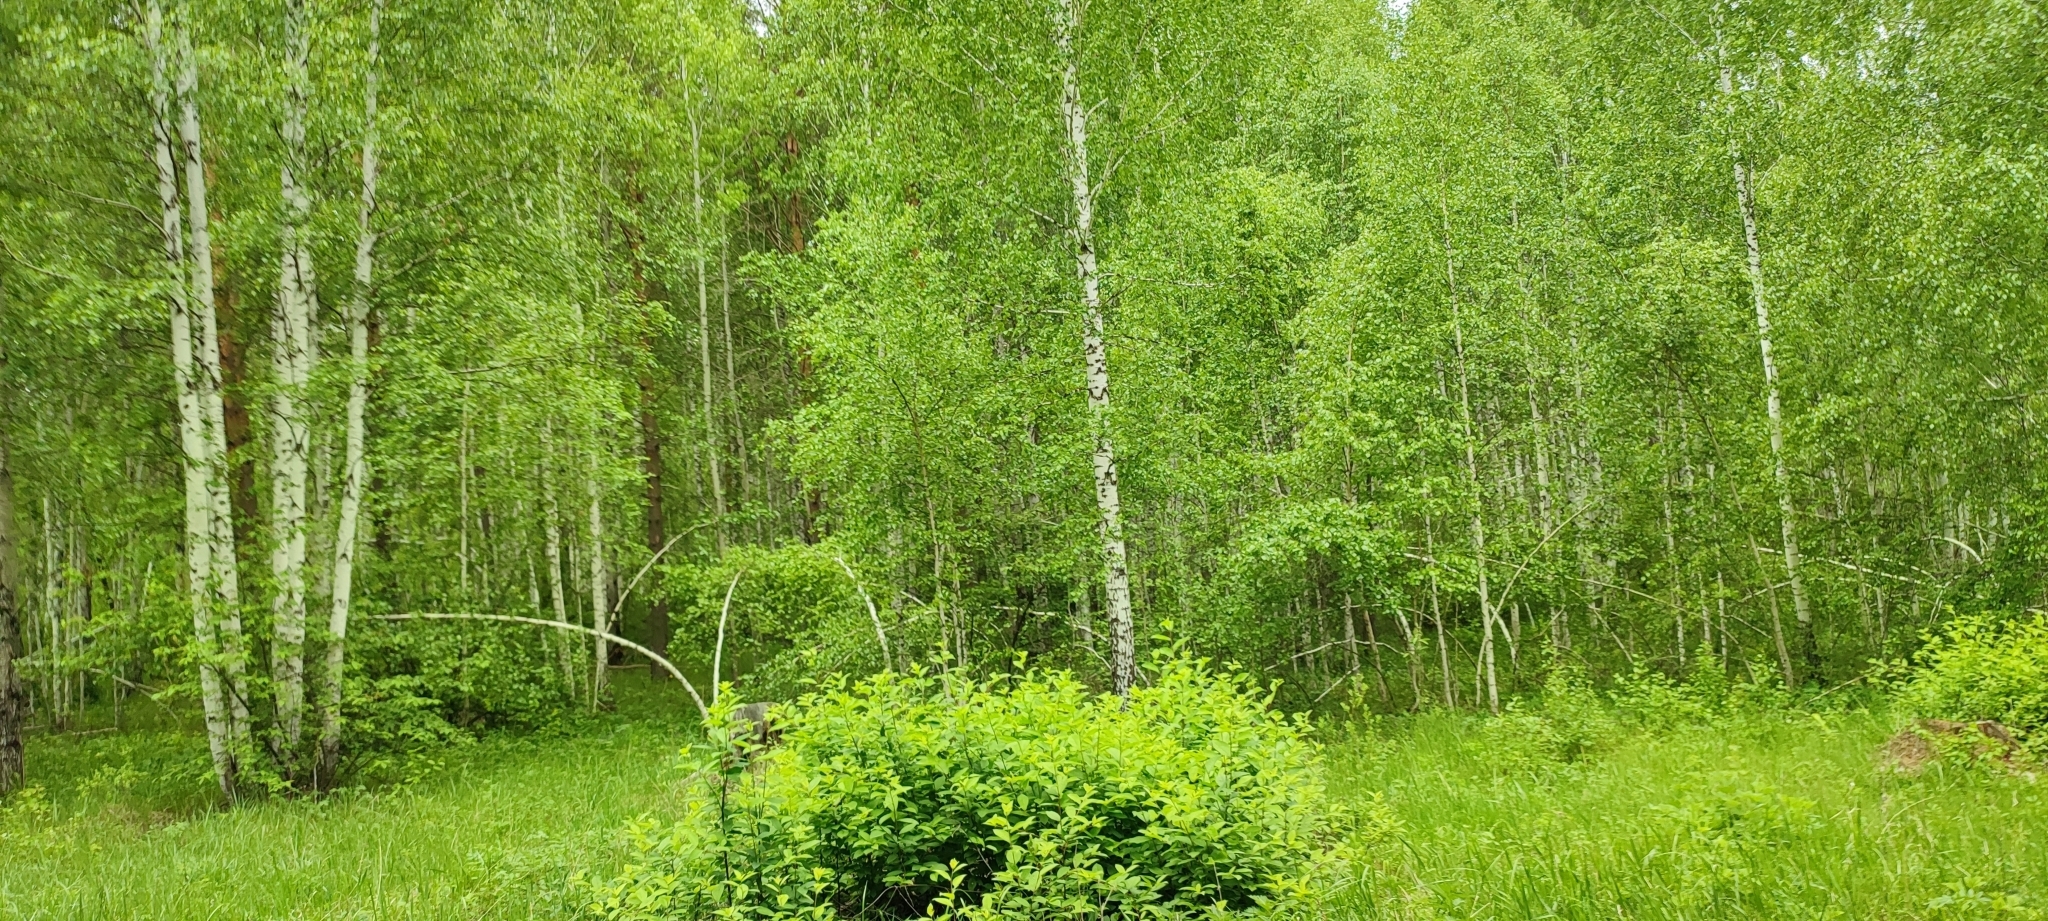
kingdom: Plantae
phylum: Tracheophyta
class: Magnoliopsida
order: Fagales
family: Betulaceae
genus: Betula
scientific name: Betula pendula
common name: Silver birch
